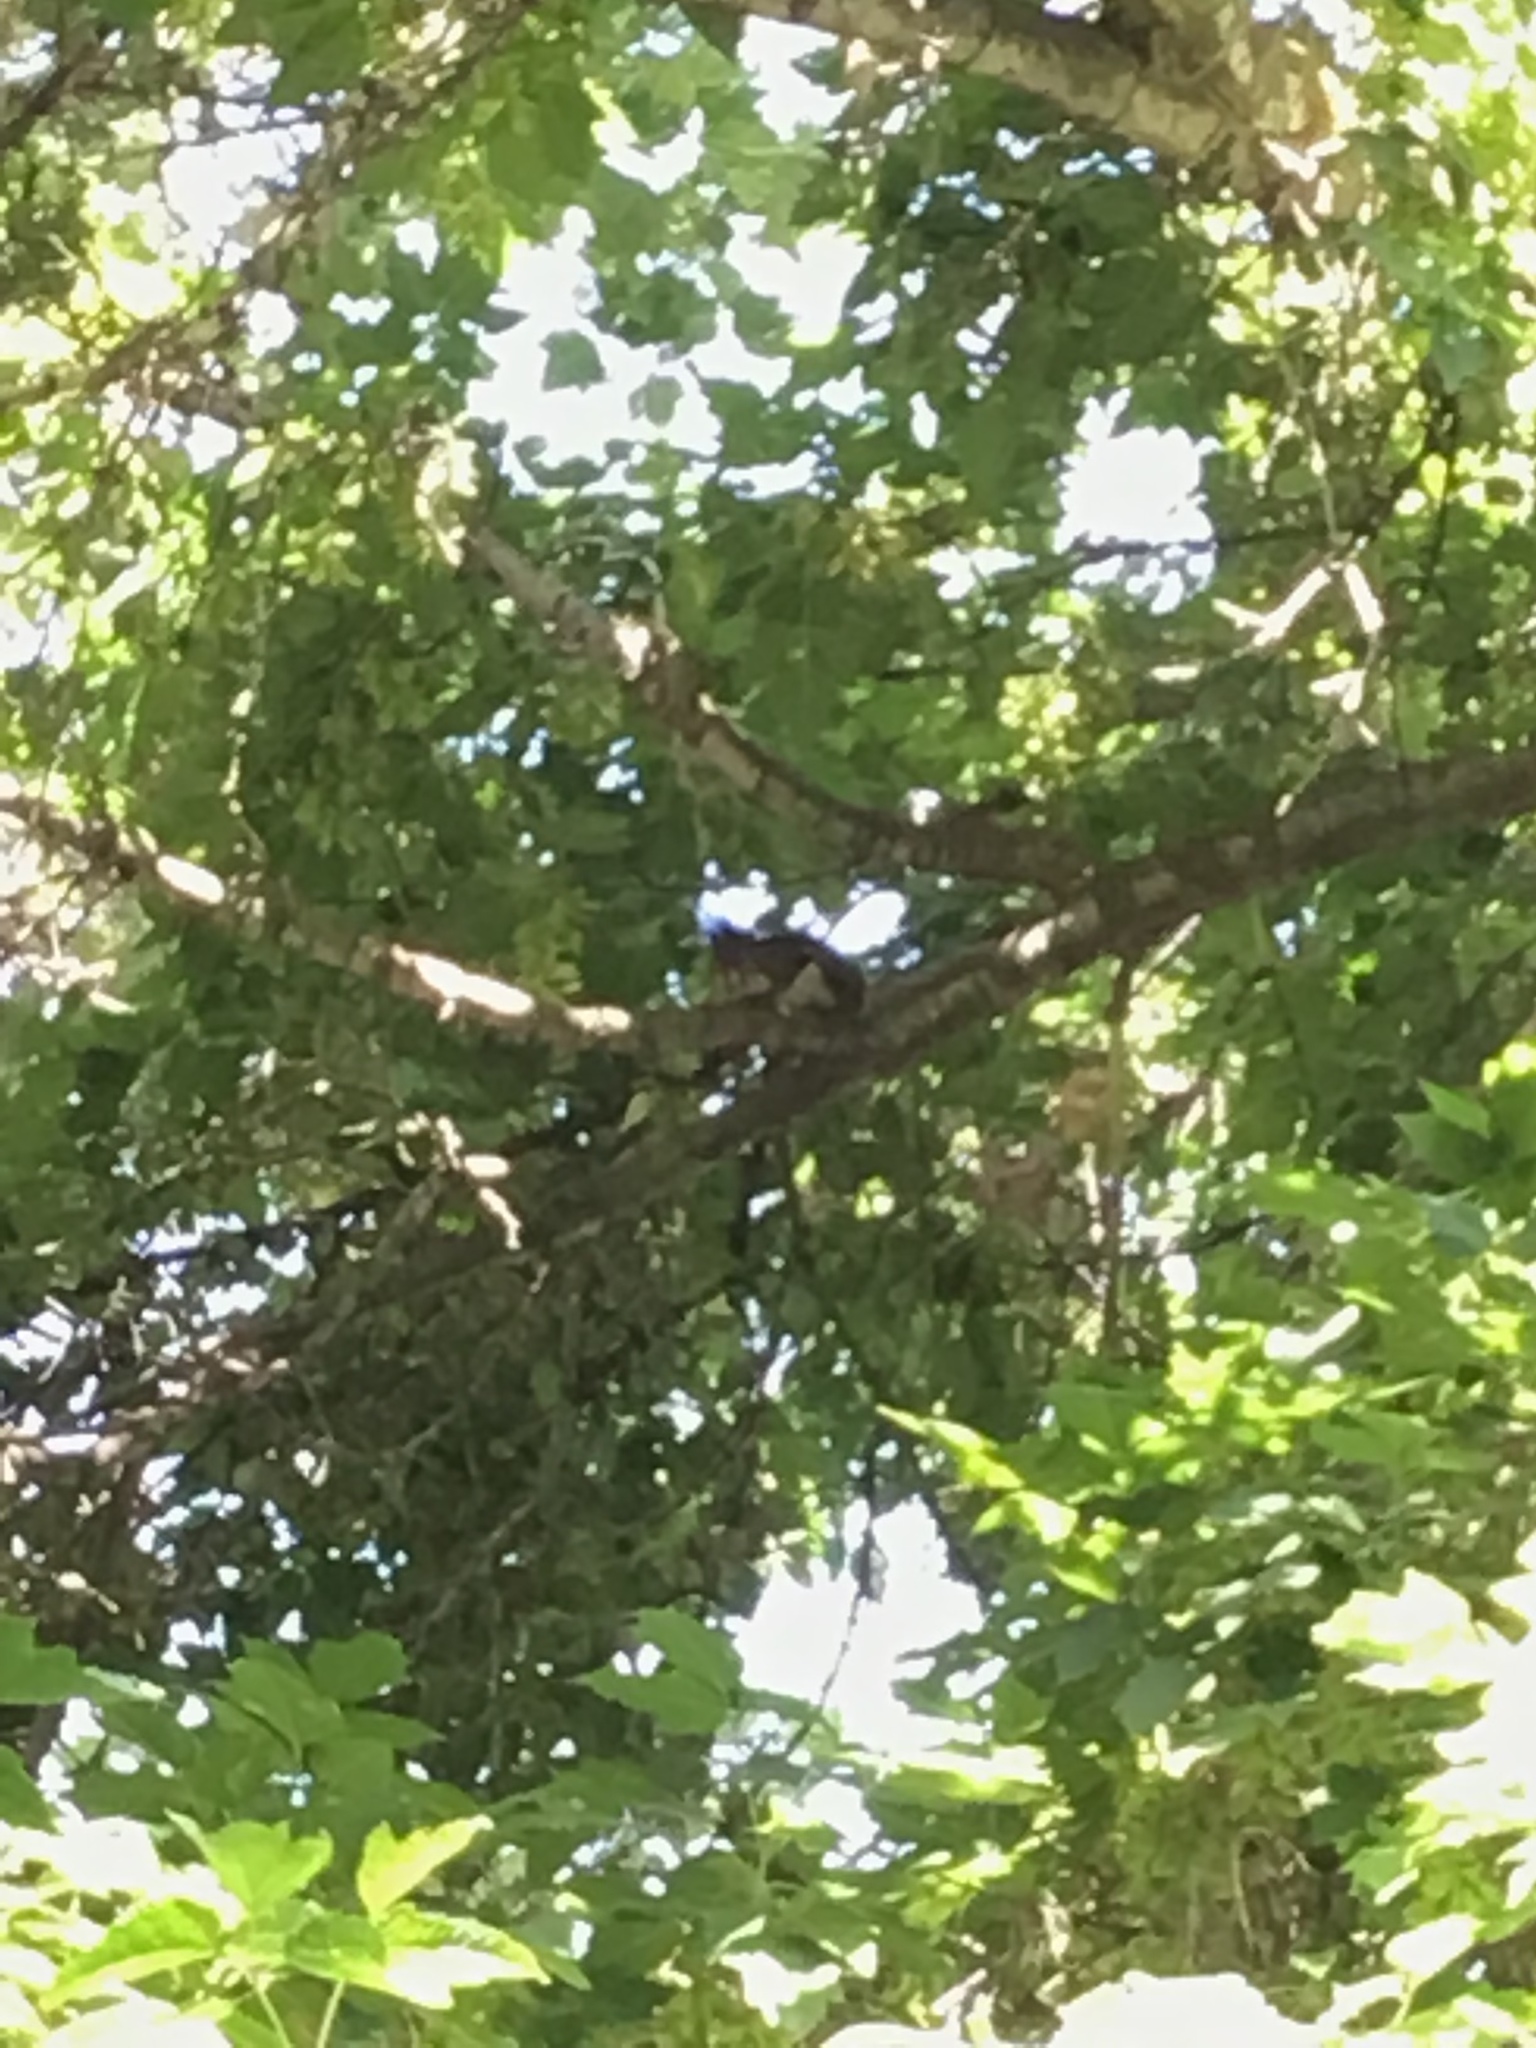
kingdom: Animalia
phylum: Chordata
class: Mammalia
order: Rodentia
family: Sciuridae
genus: Tamiasciurus
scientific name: Tamiasciurus hudsonicus
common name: Red squirrel
